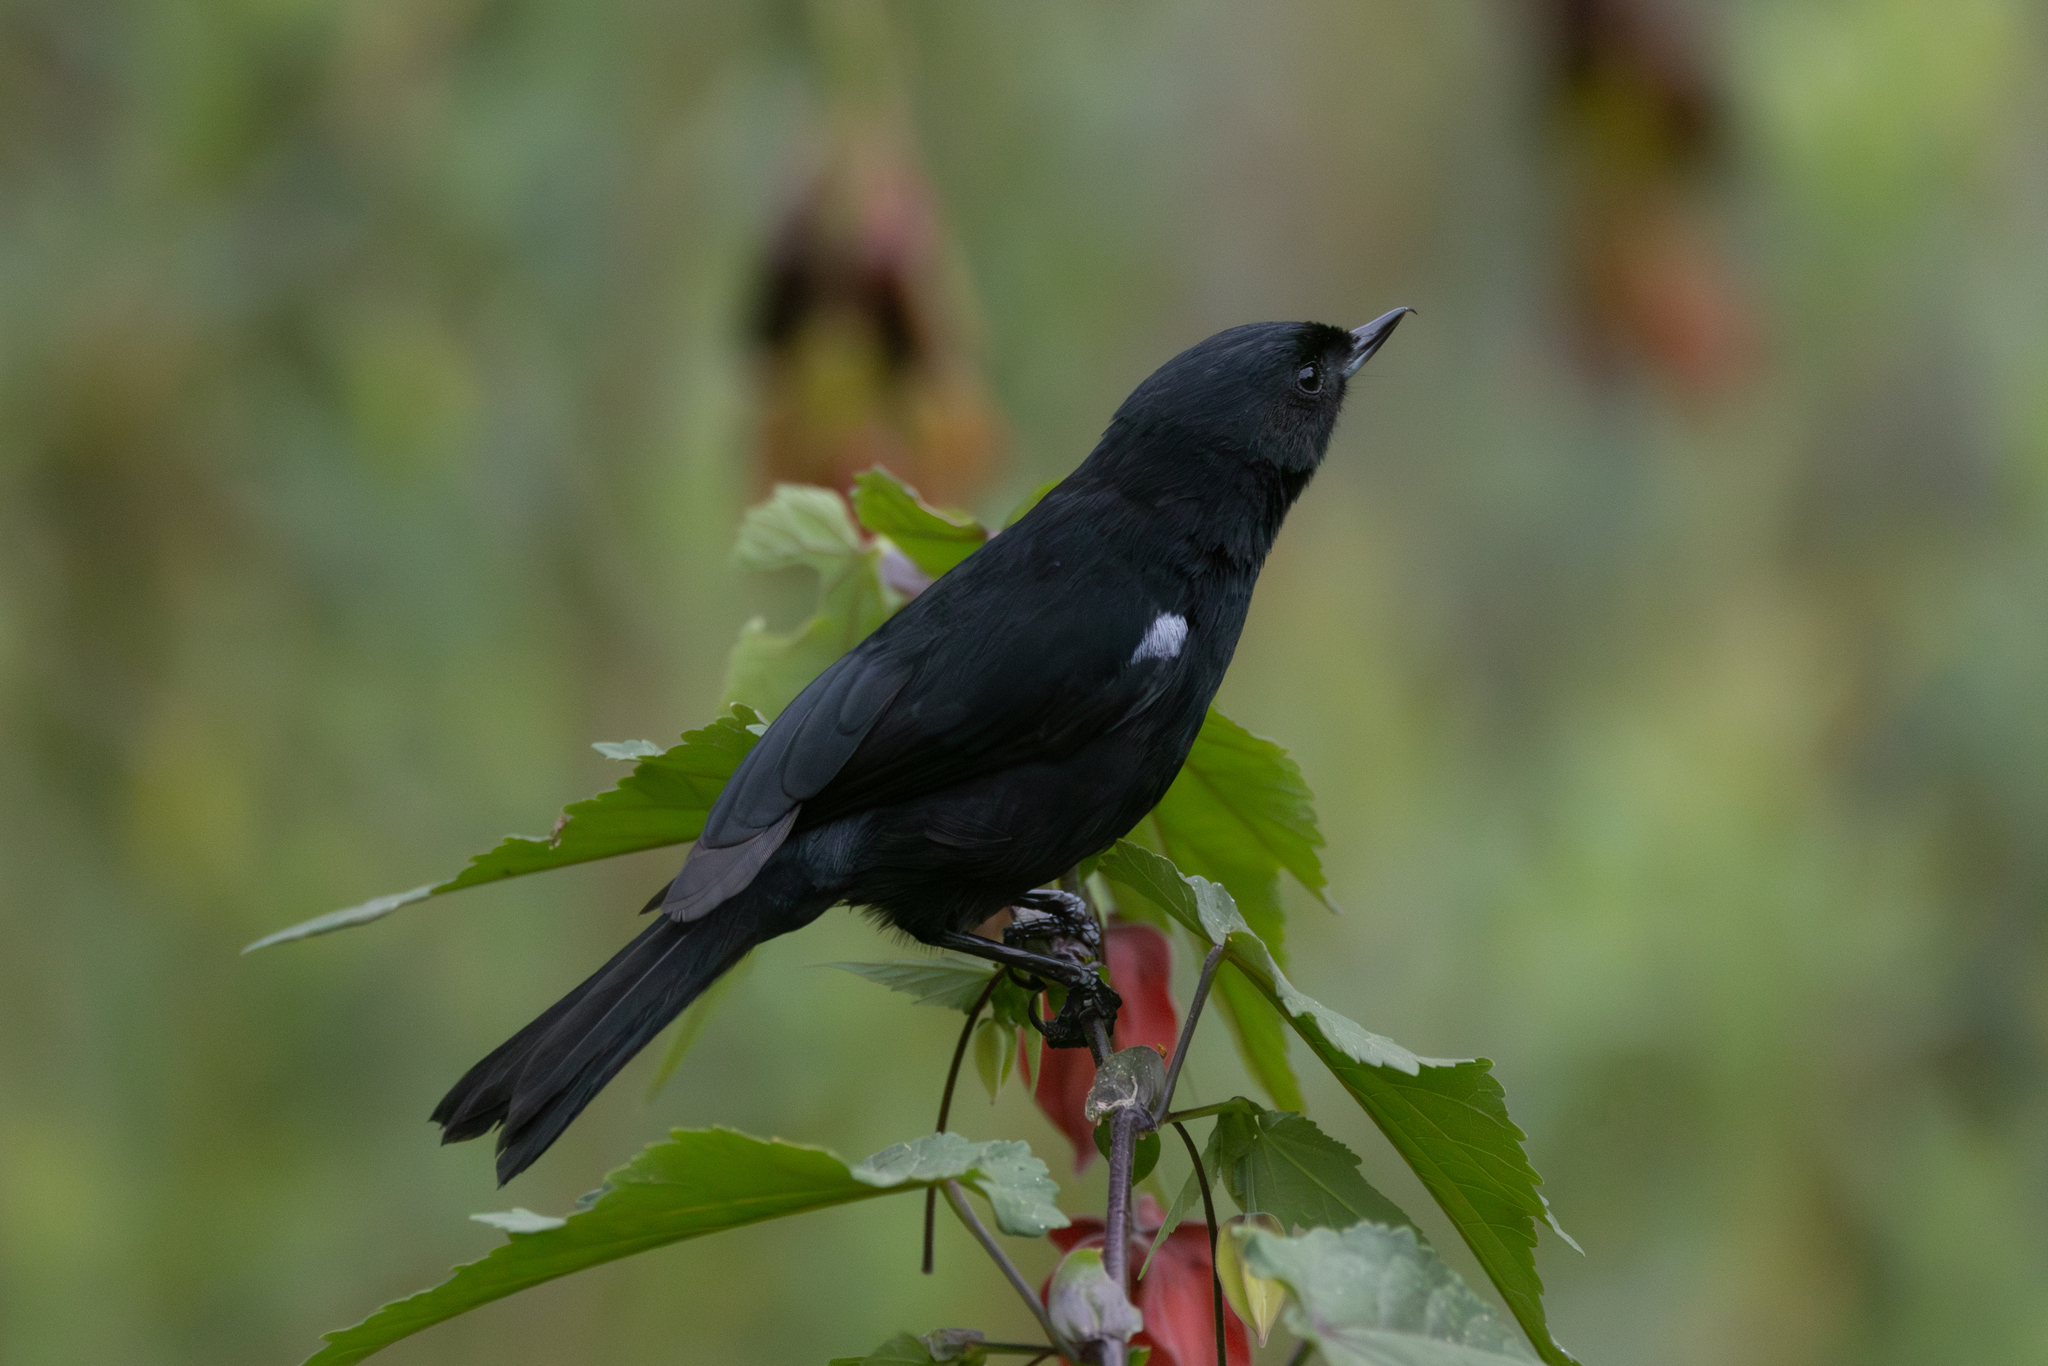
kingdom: Animalia
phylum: Chordata
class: Aves
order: Passeriformes
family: Thraupidae
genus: Diglossa
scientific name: Diglossa humeralis
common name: Black flowerpiercer
